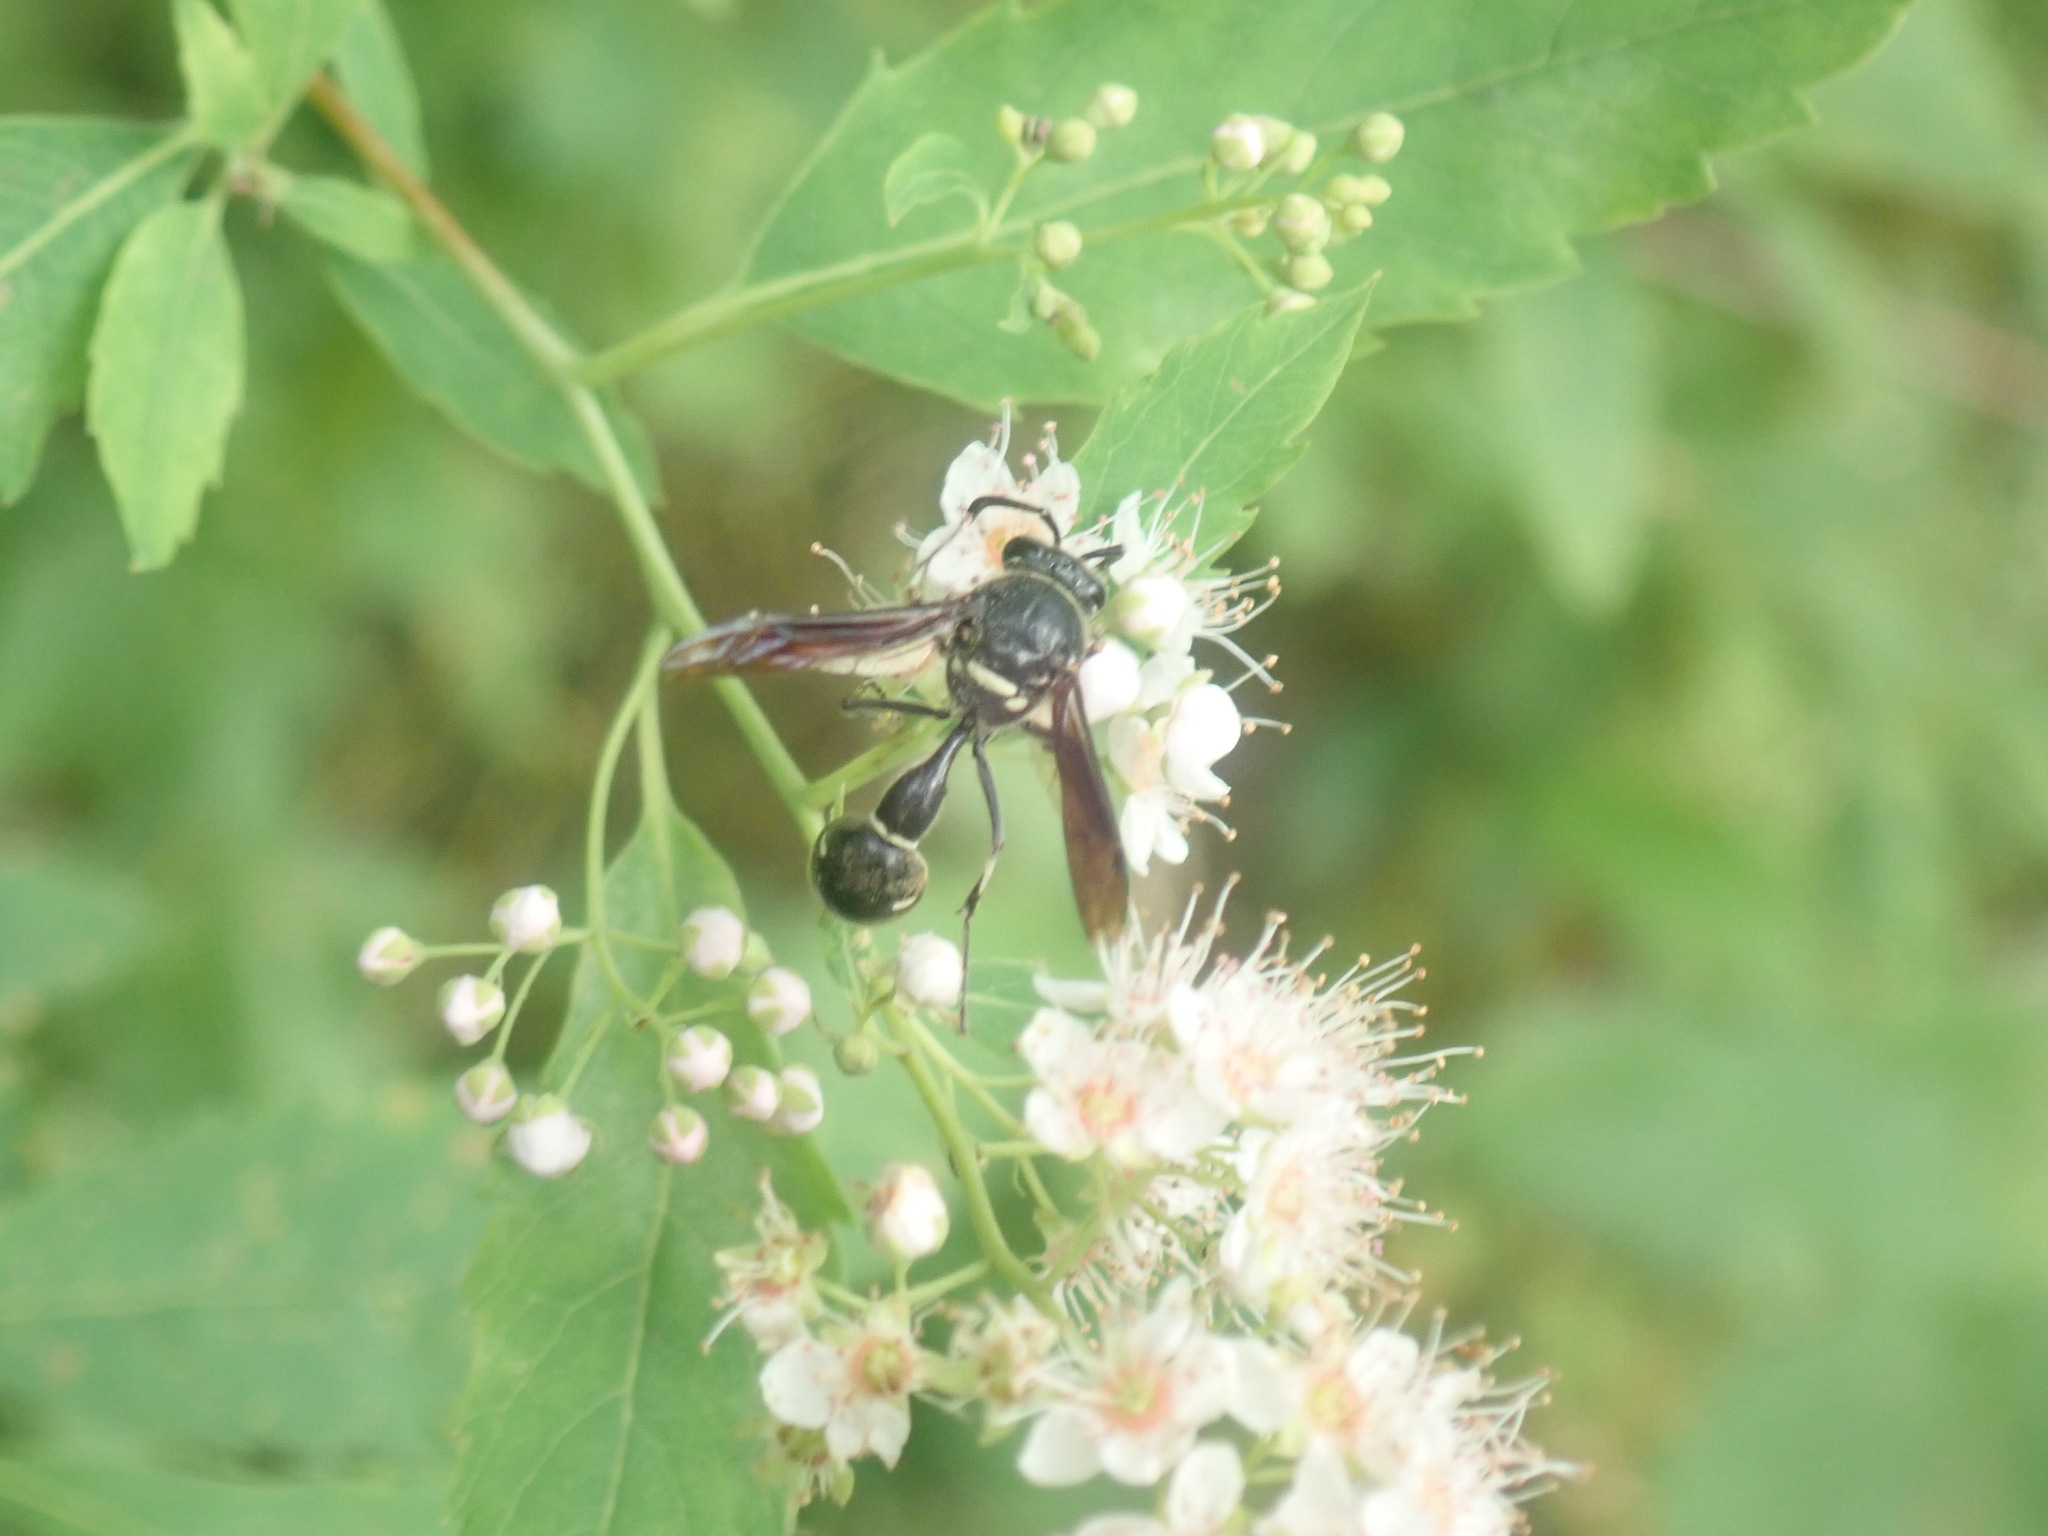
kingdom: Animalia
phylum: Arthropoda
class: Insecta
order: Hymenoptera
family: Vespidae
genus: Eumenes
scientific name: Eumenes fraternus
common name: Fraternal potter wasp
